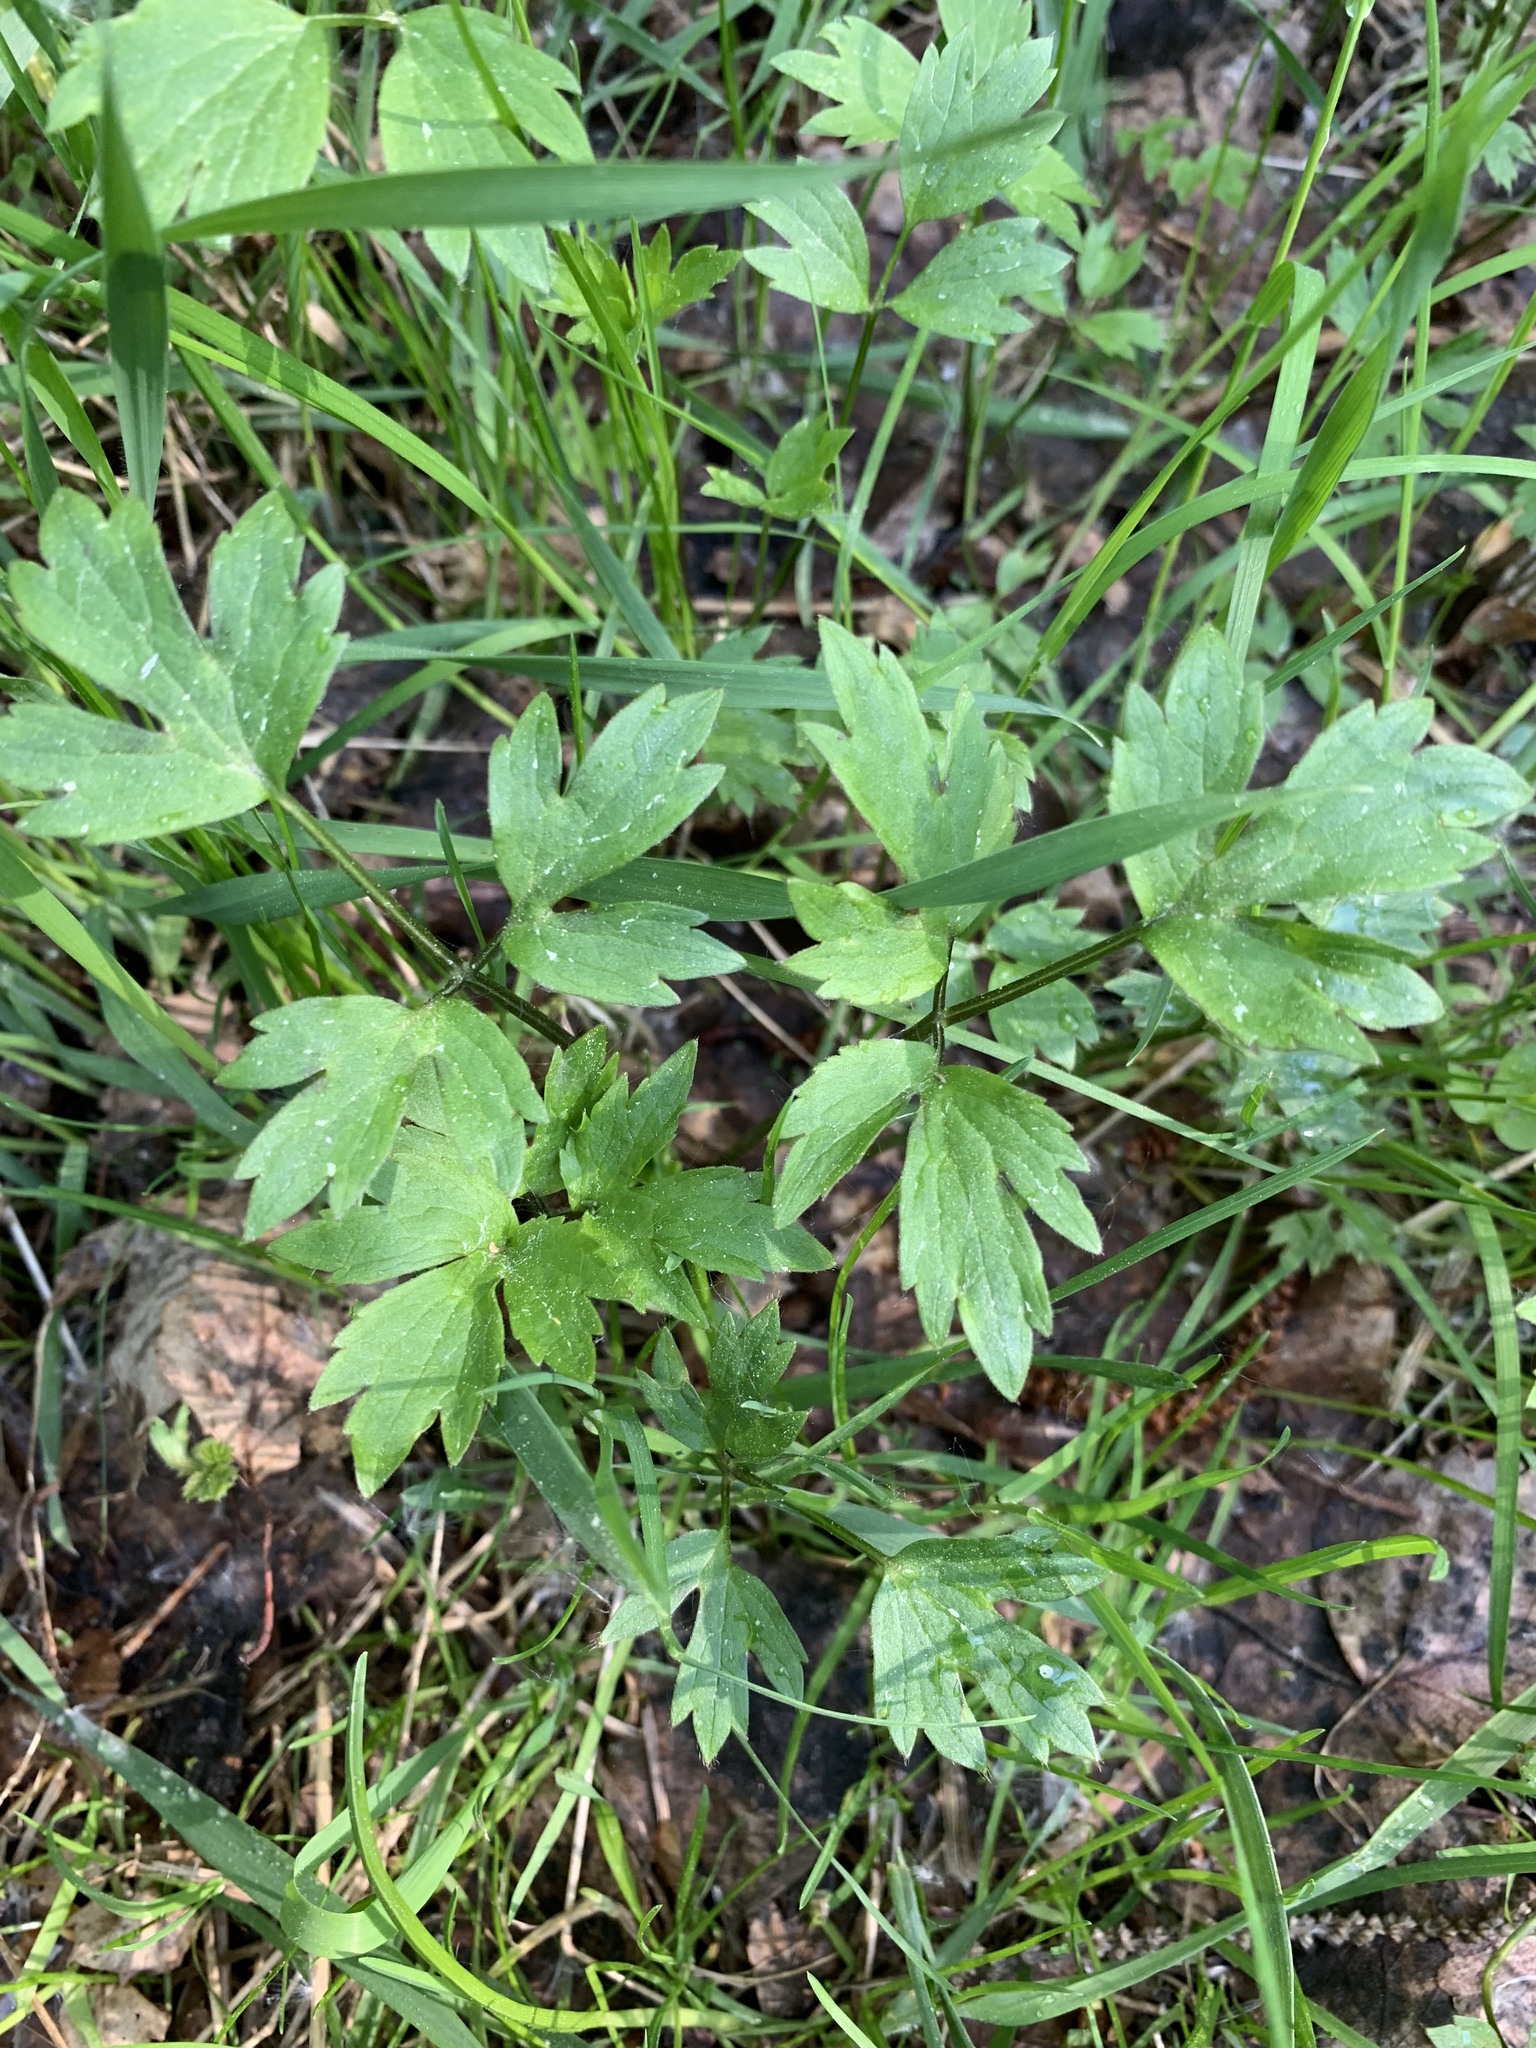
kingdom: Plantae
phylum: Tracheophyta
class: Magnoliopsida
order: Ranunculales
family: Ranunculaceae
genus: Ranunculus
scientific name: Ranunculus repens
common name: Creeping buttercup
